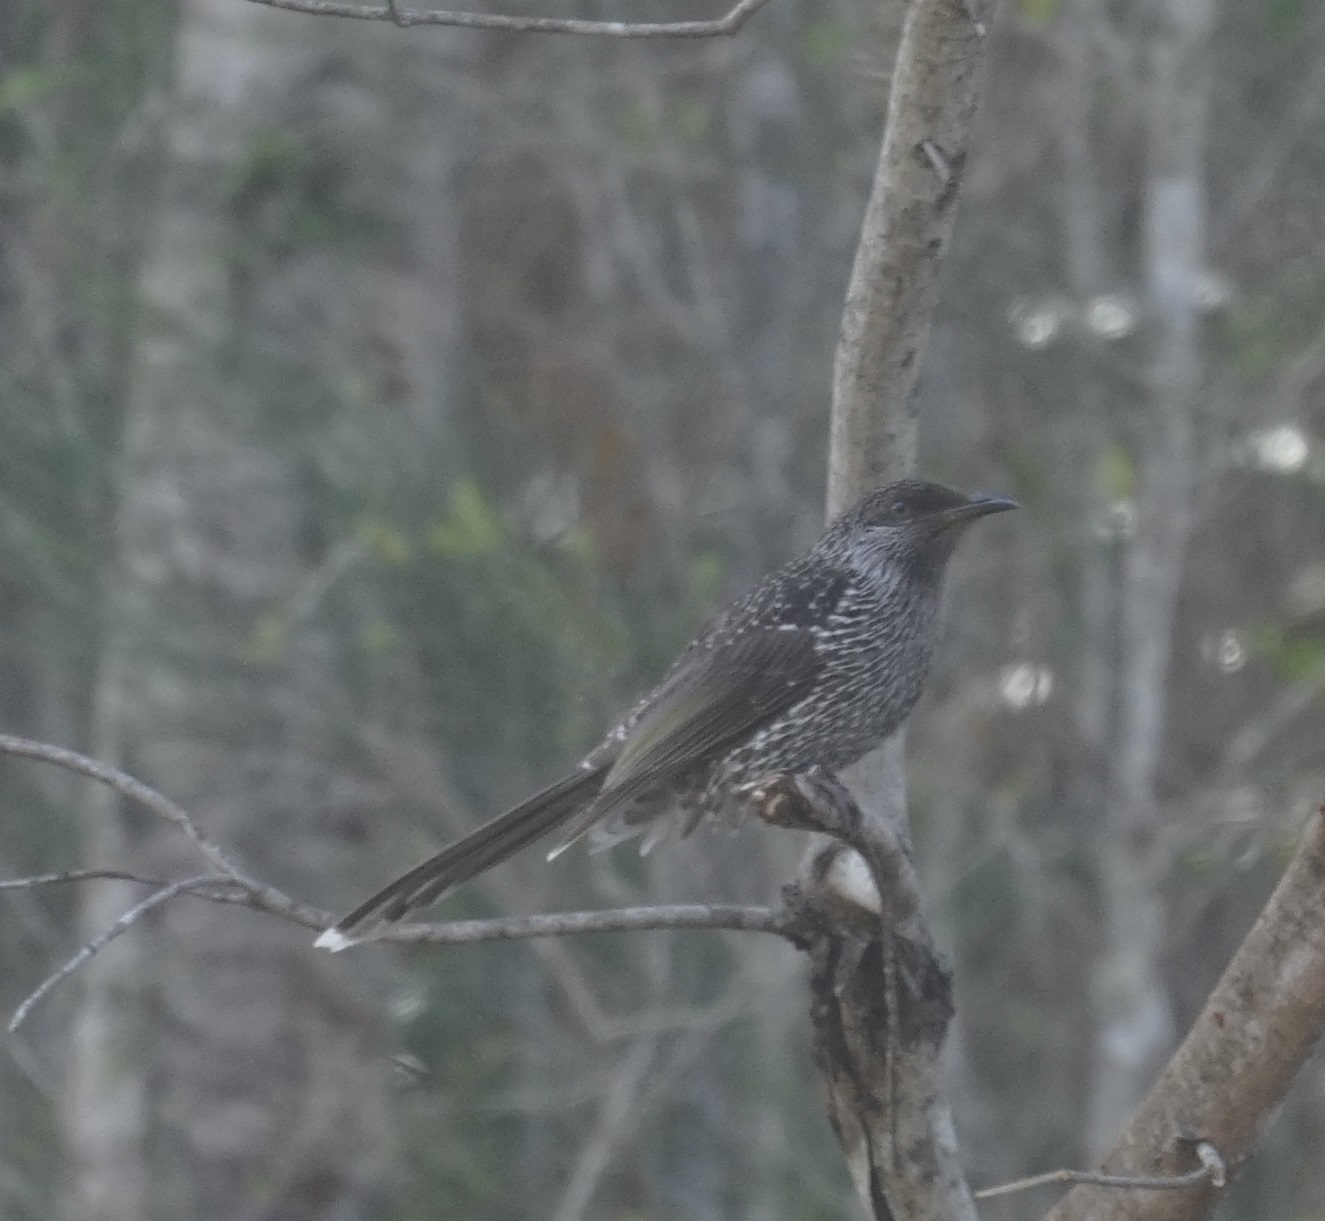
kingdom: Animalia
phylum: Chordata
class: Aves
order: Passeriformes
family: Meliphagidae
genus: Anthochaera
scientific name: Anthochaera chrysoptera
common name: Little wattlebird
